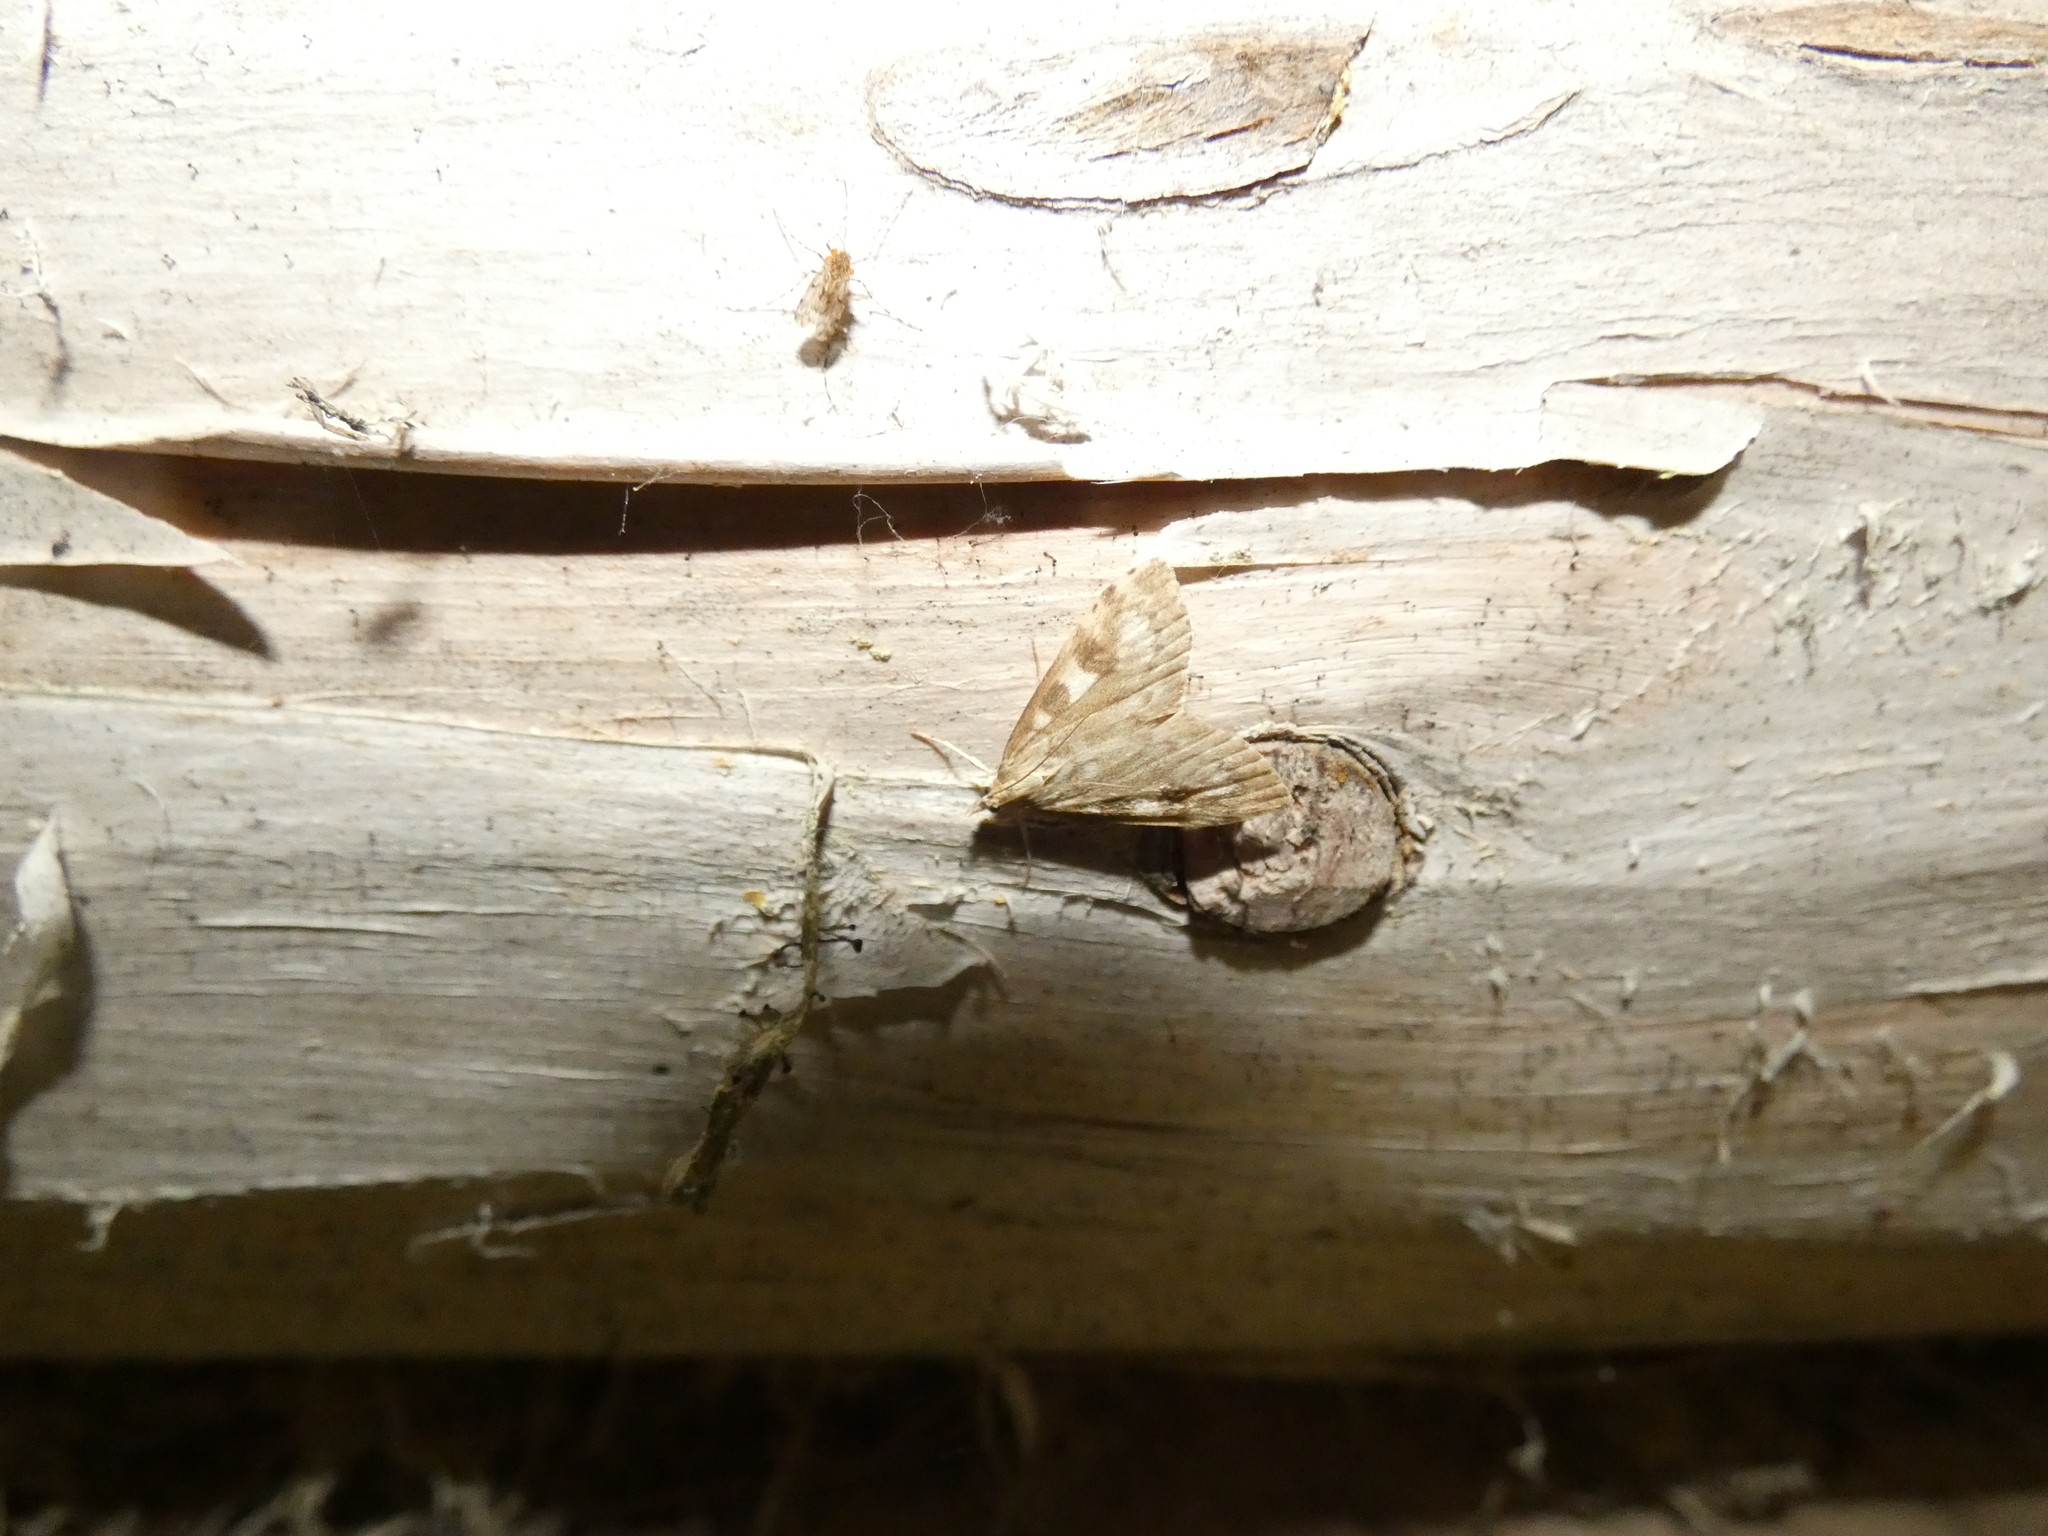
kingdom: Animalia
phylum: Arthropoda
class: Insecta
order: Lepidoptera
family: Crambidae
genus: Udea
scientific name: Udea olivalis
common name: Olive pearl
